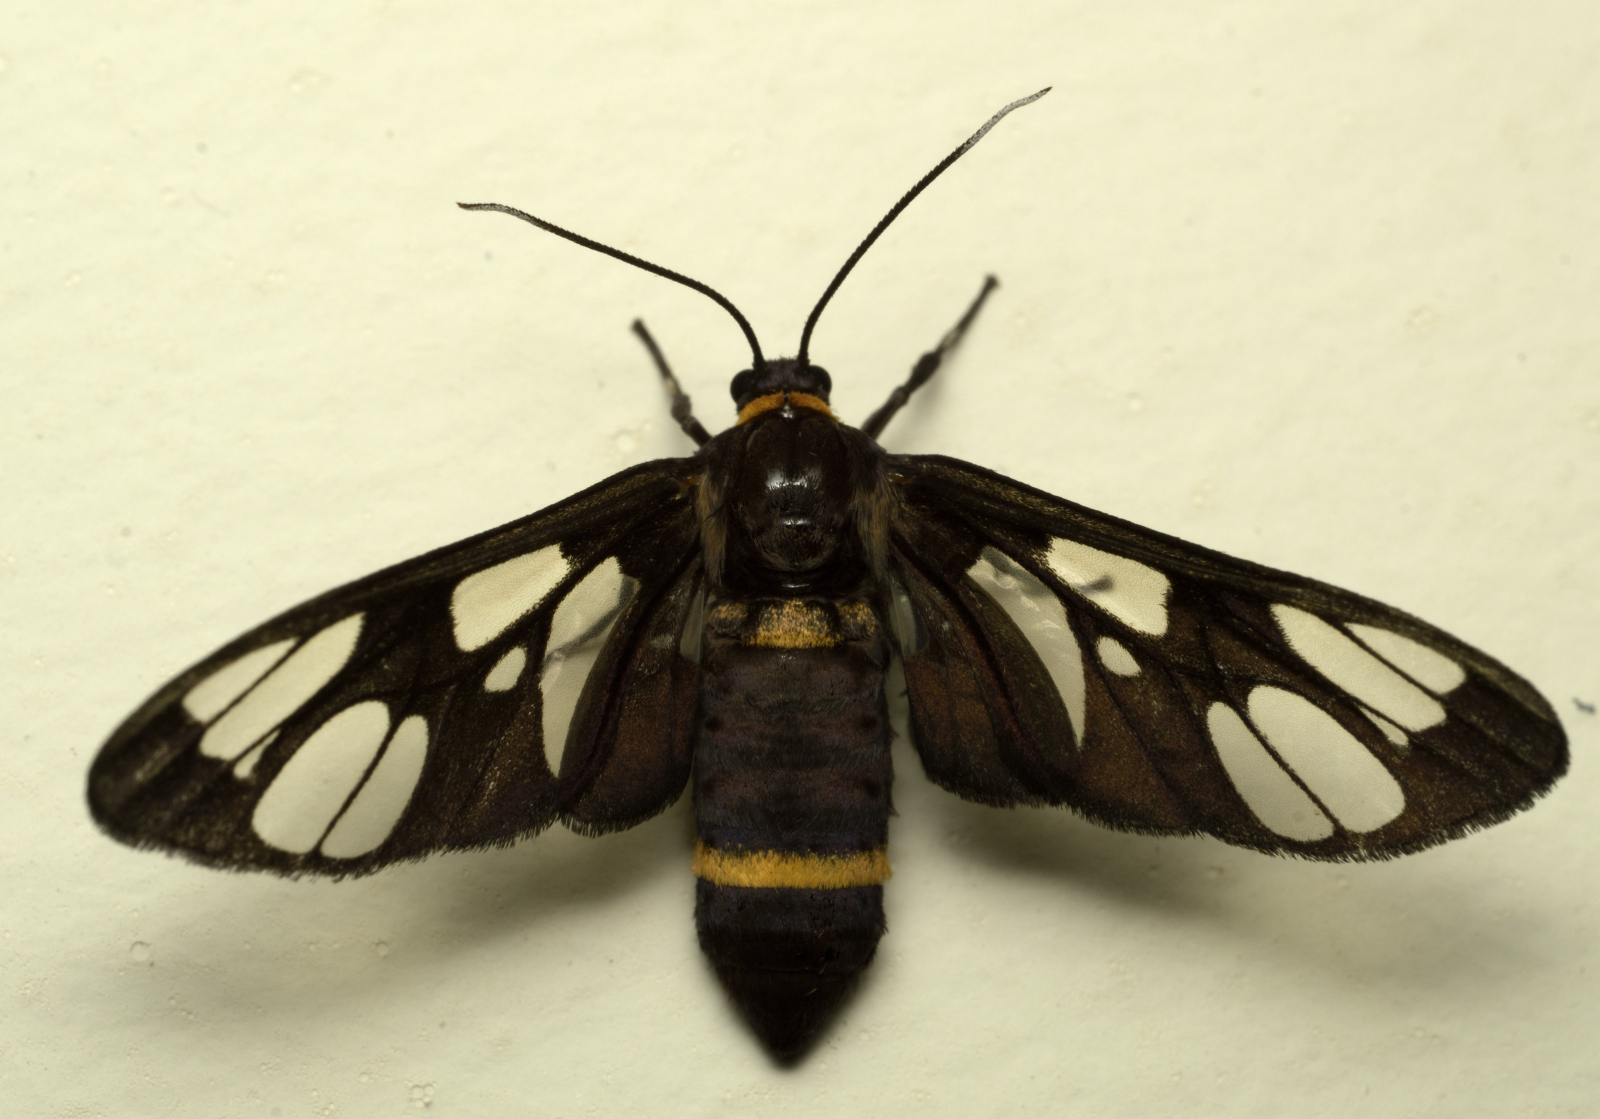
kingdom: Animalia
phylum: Arthropoda
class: Insecta
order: Lepidoptera
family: Erebidae
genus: Syntomoides
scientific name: Syntomoides imaon
